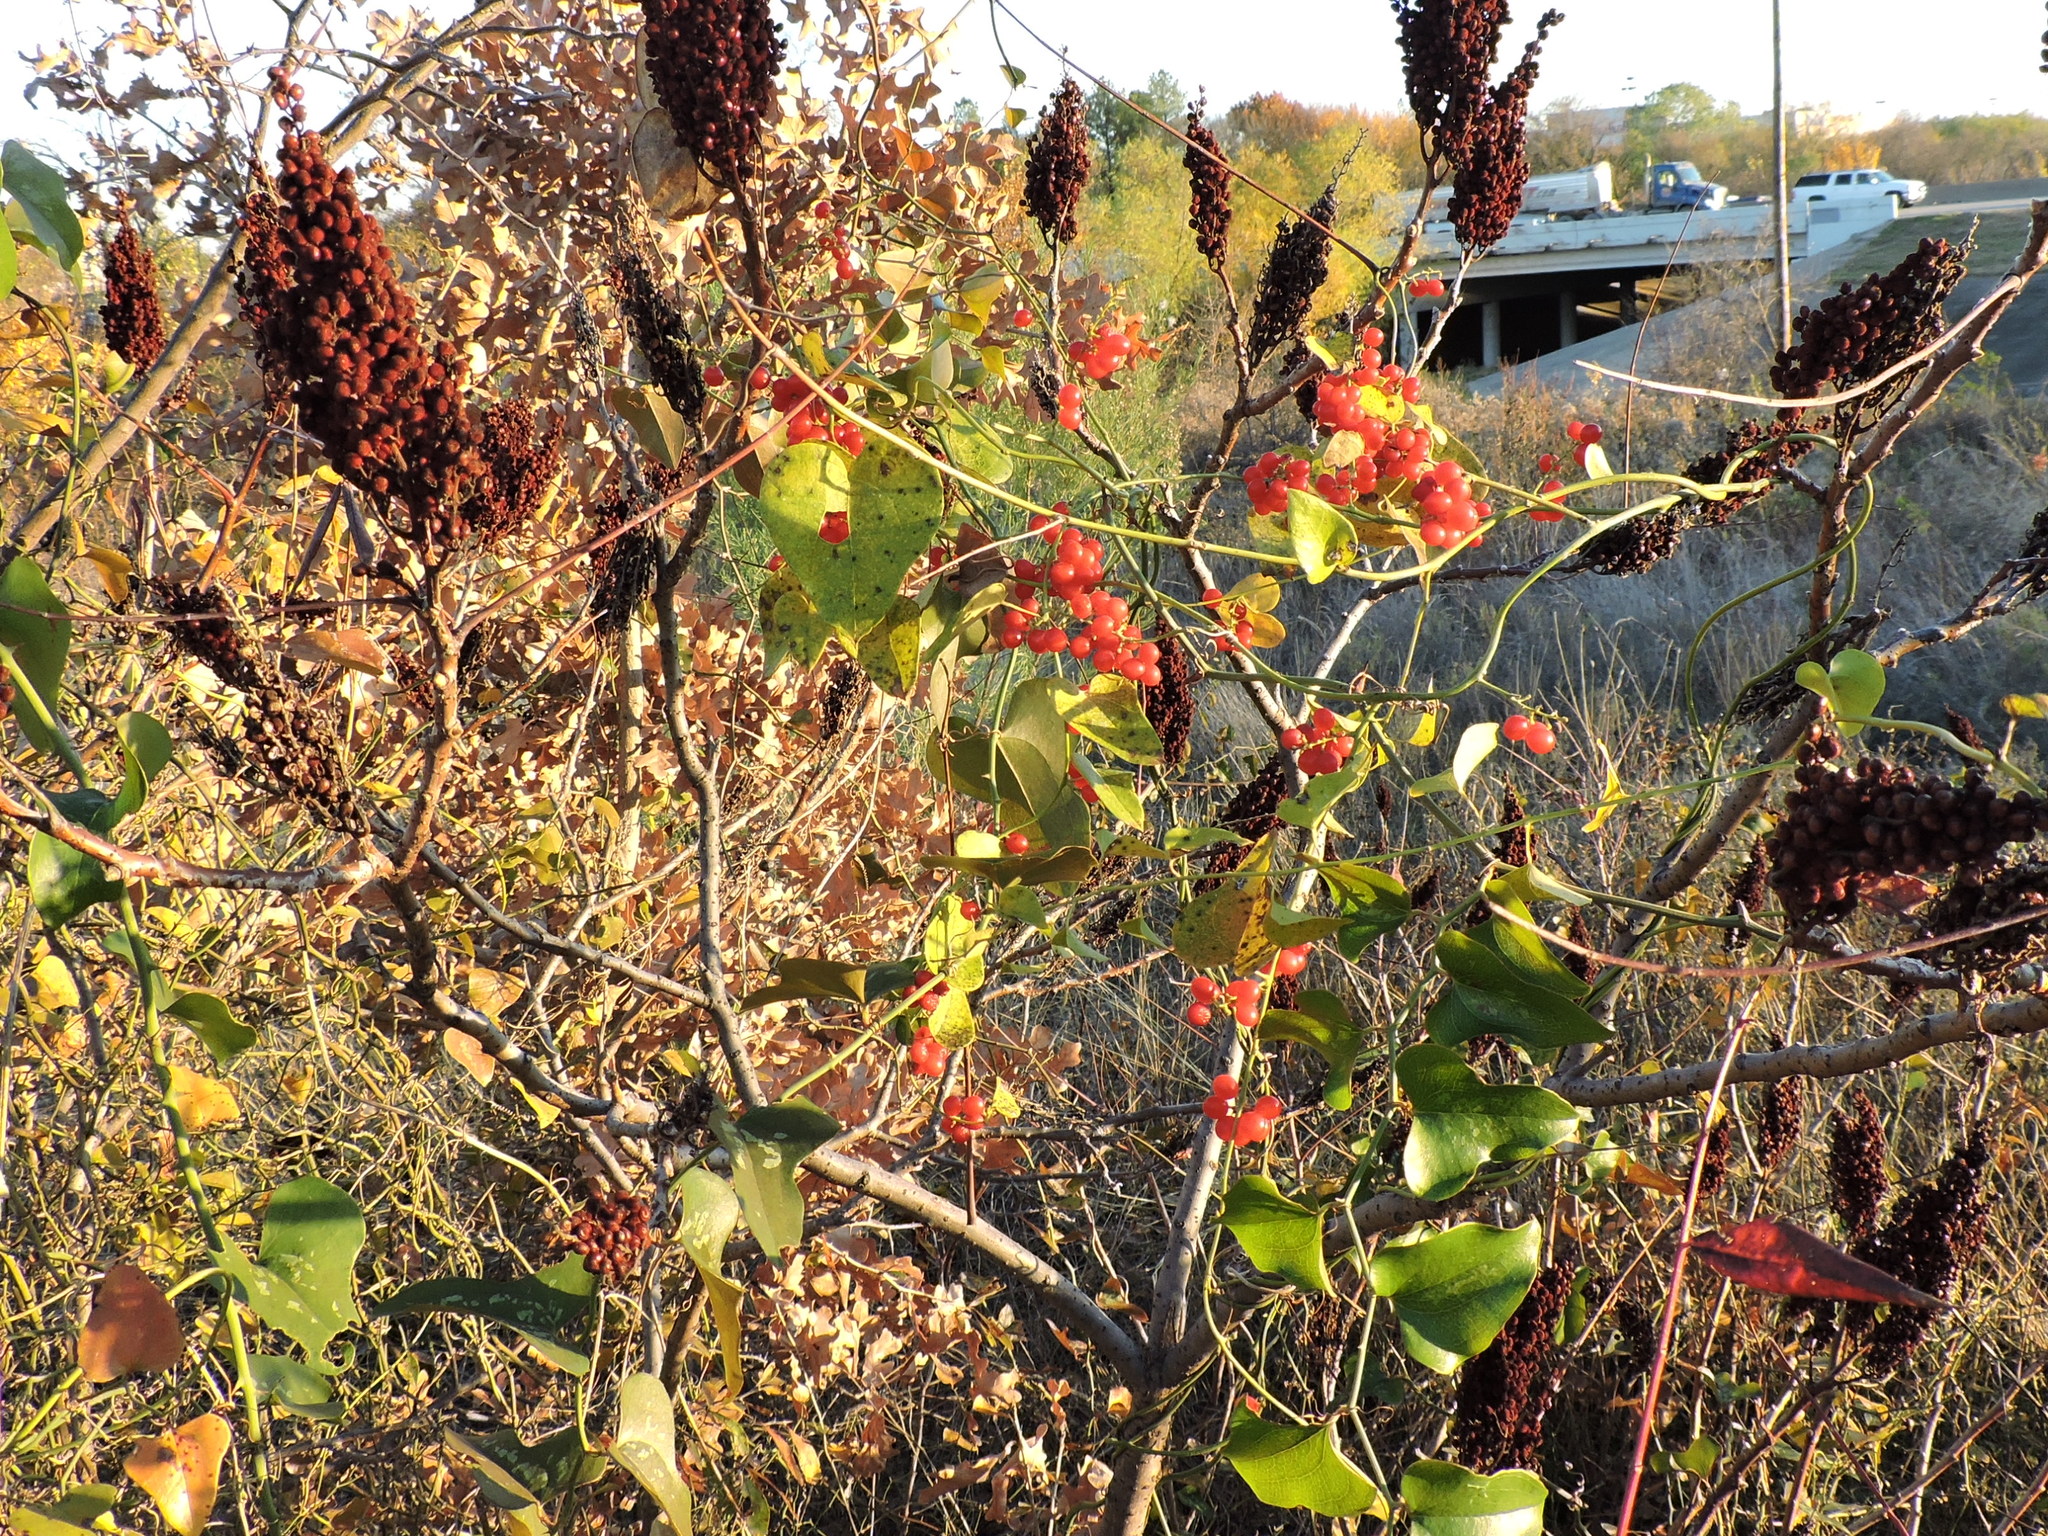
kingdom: Plantae
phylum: Tracheophyta
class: Magnoliopsida
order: Ranunculales
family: Menispermaceae
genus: Cocculus
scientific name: Cocculus carolinus
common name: Carolina moonseed
